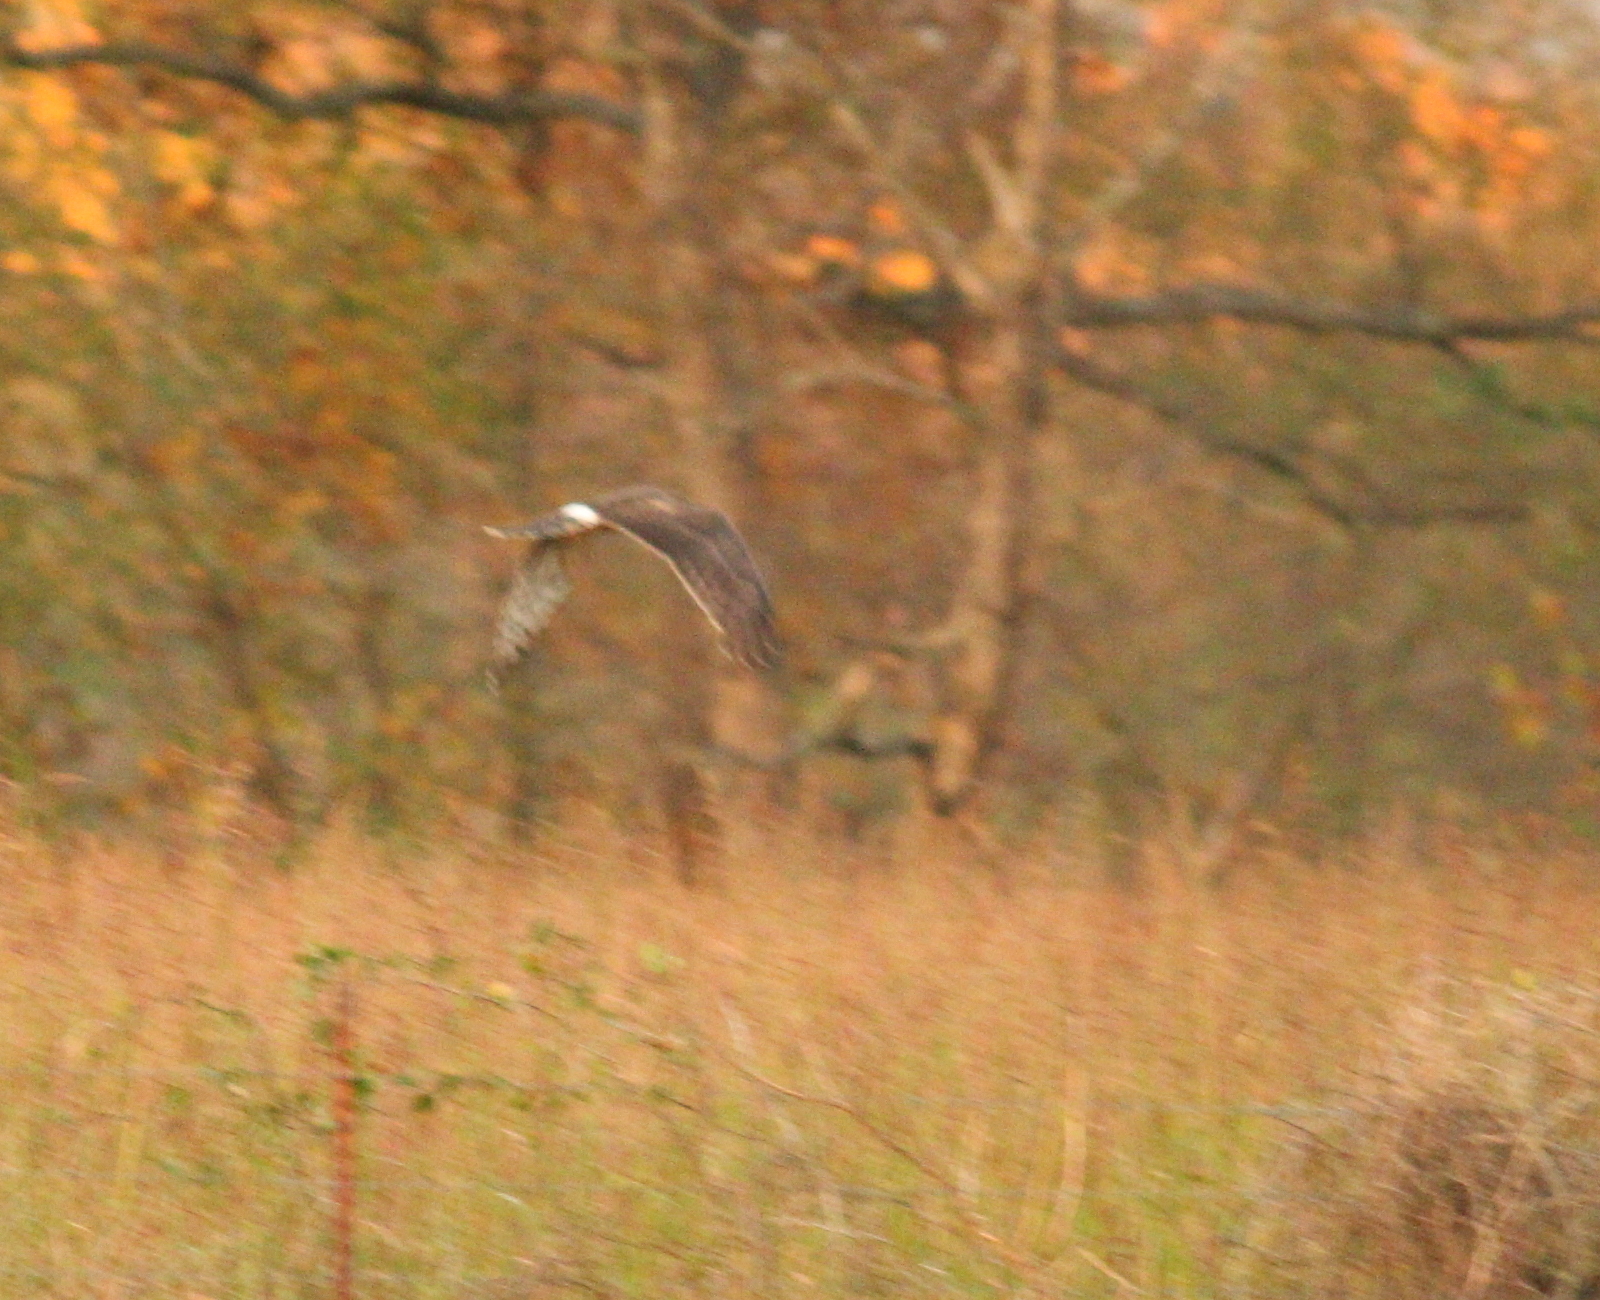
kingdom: Animalia
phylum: Chordata
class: Aves
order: Accipitriformes
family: Accipitridae
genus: Circus
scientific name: Circus cyaneus
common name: Hen harrier
